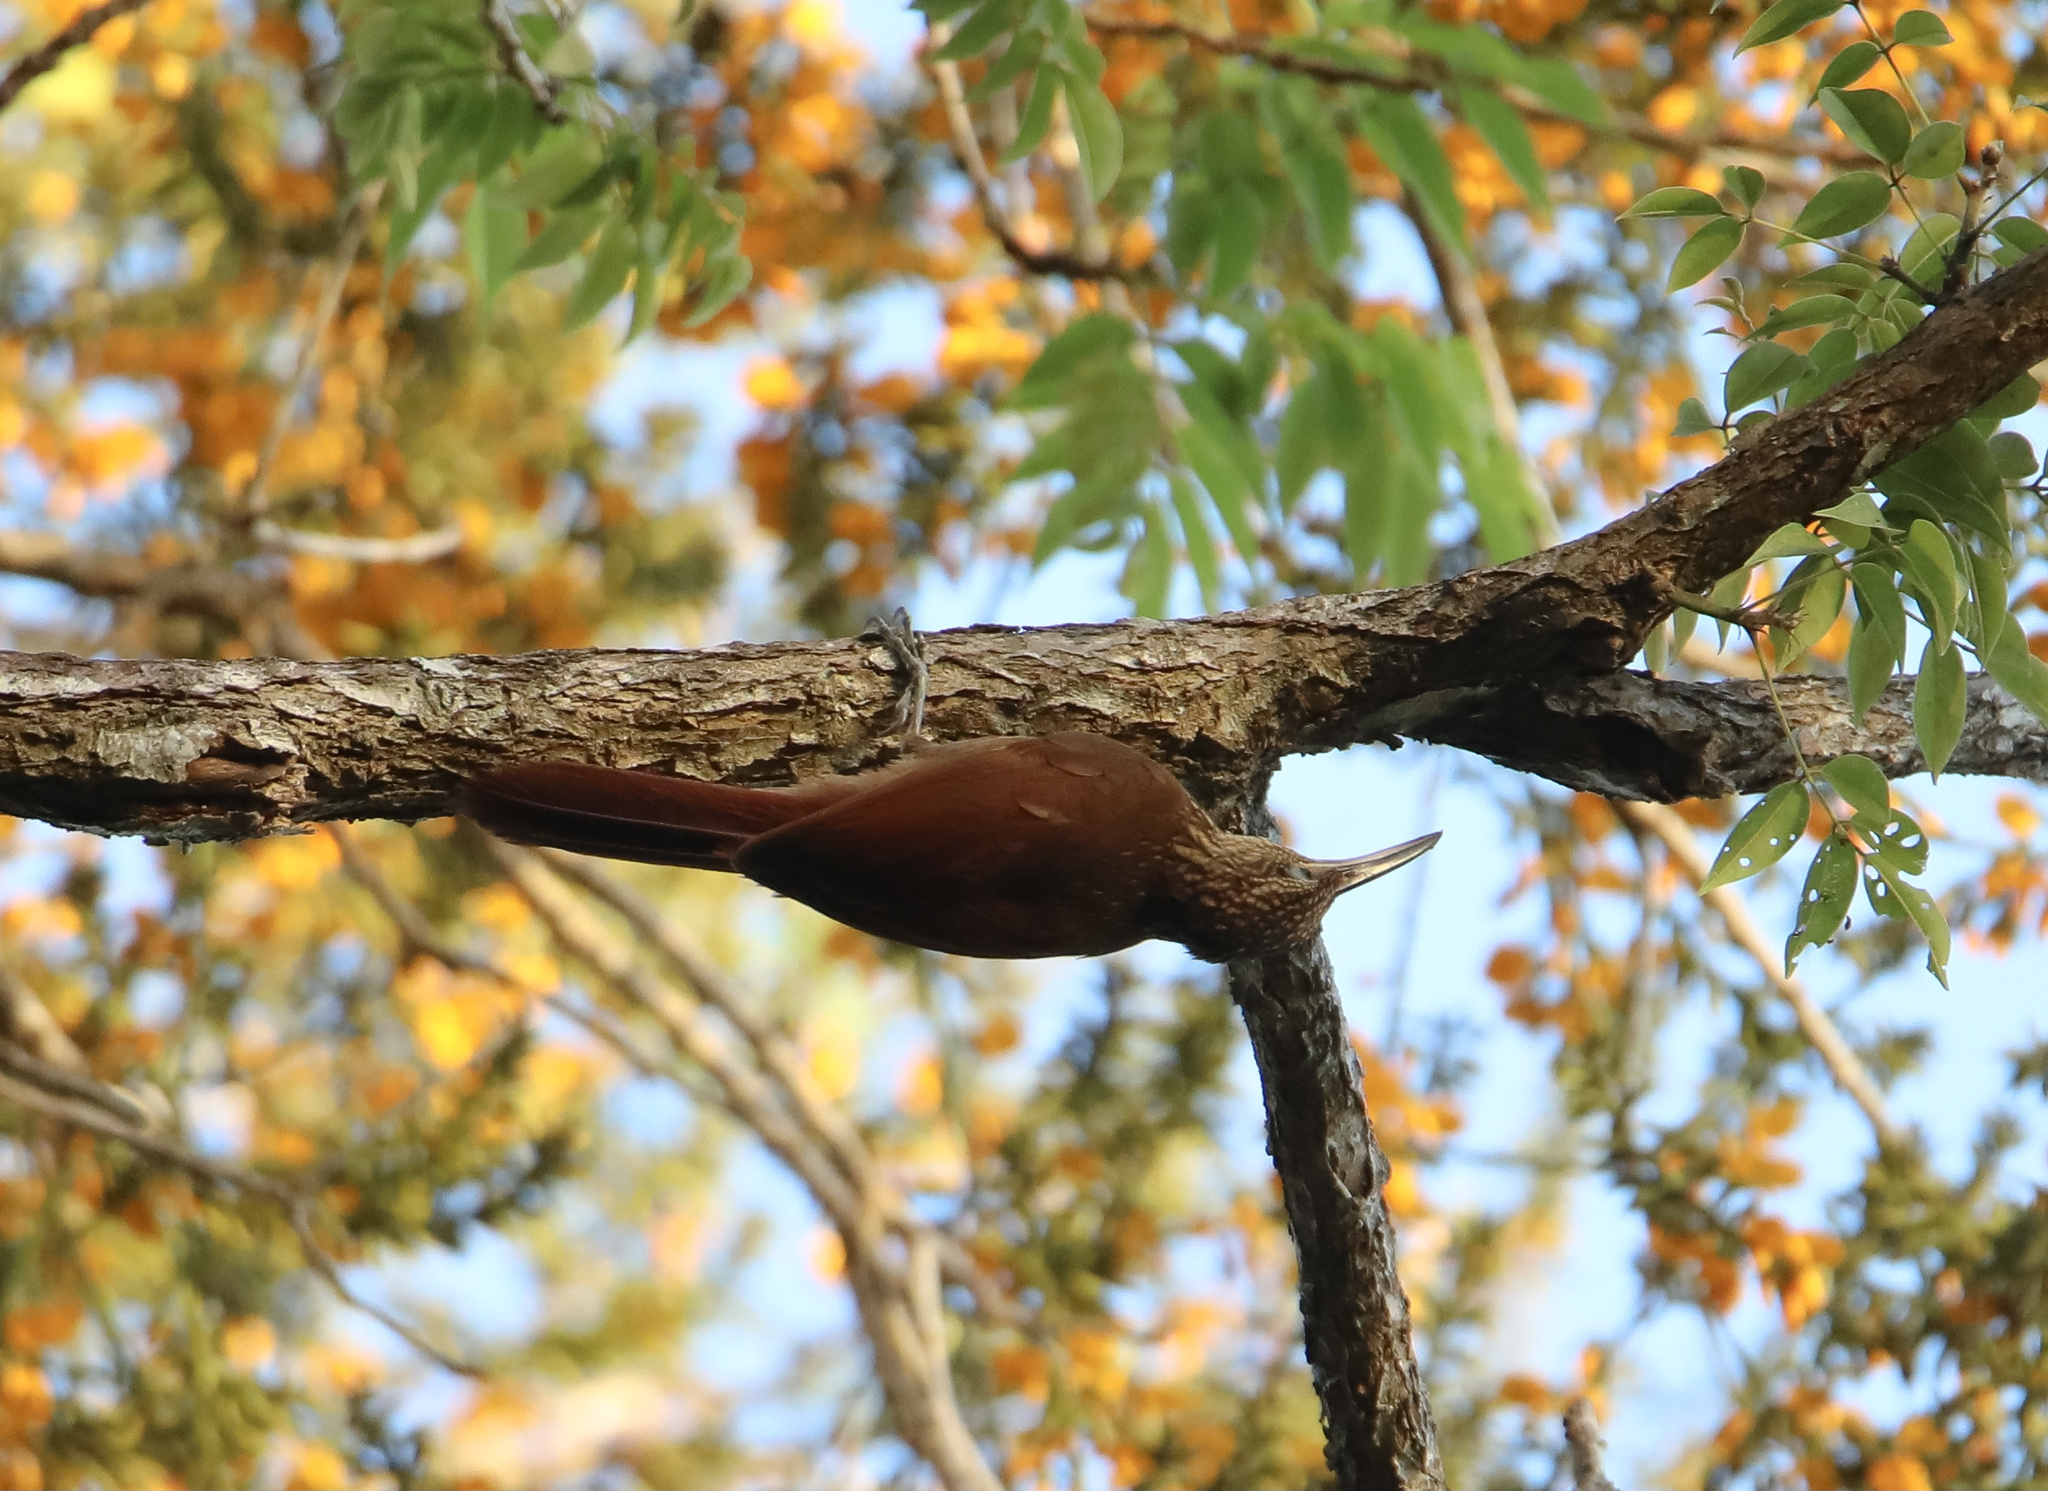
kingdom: Animalia
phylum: Chordata
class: Aves
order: Passeriformes
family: Furnariidae
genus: Xiphorhynchus
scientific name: Xiphorhynchus susurrans
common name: Cocoa woodcreeper
